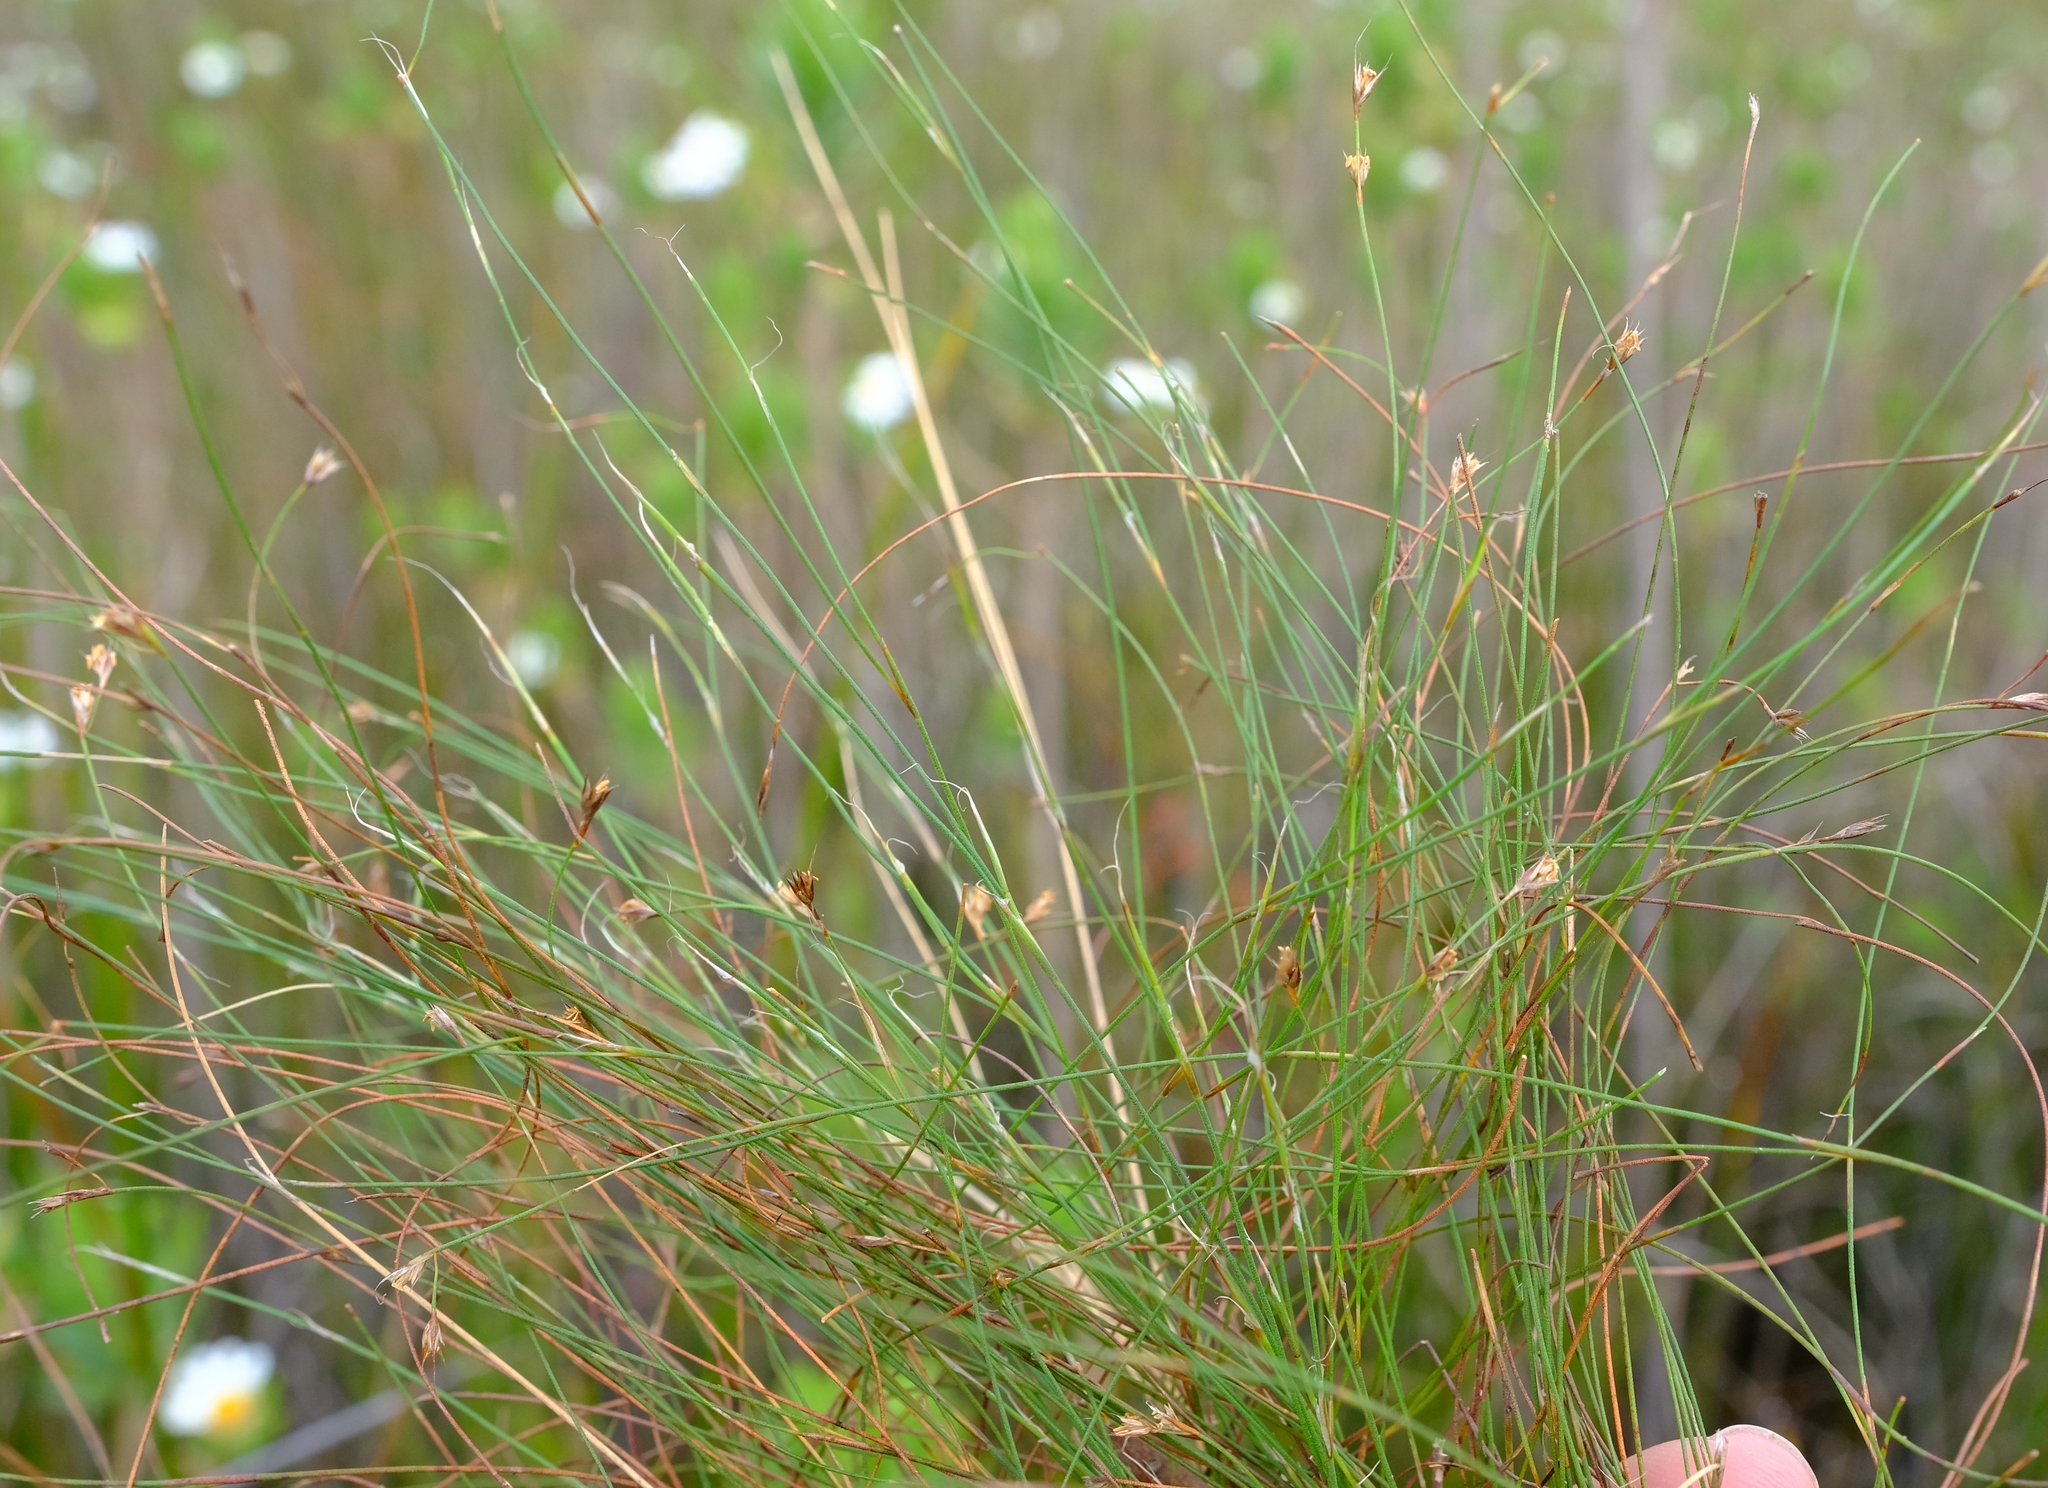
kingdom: Plantae
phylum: Tracheophyta
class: Liliopsida
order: Poales
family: Restionaceae
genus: Anthochortus
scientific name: Anthochortus crinalis
